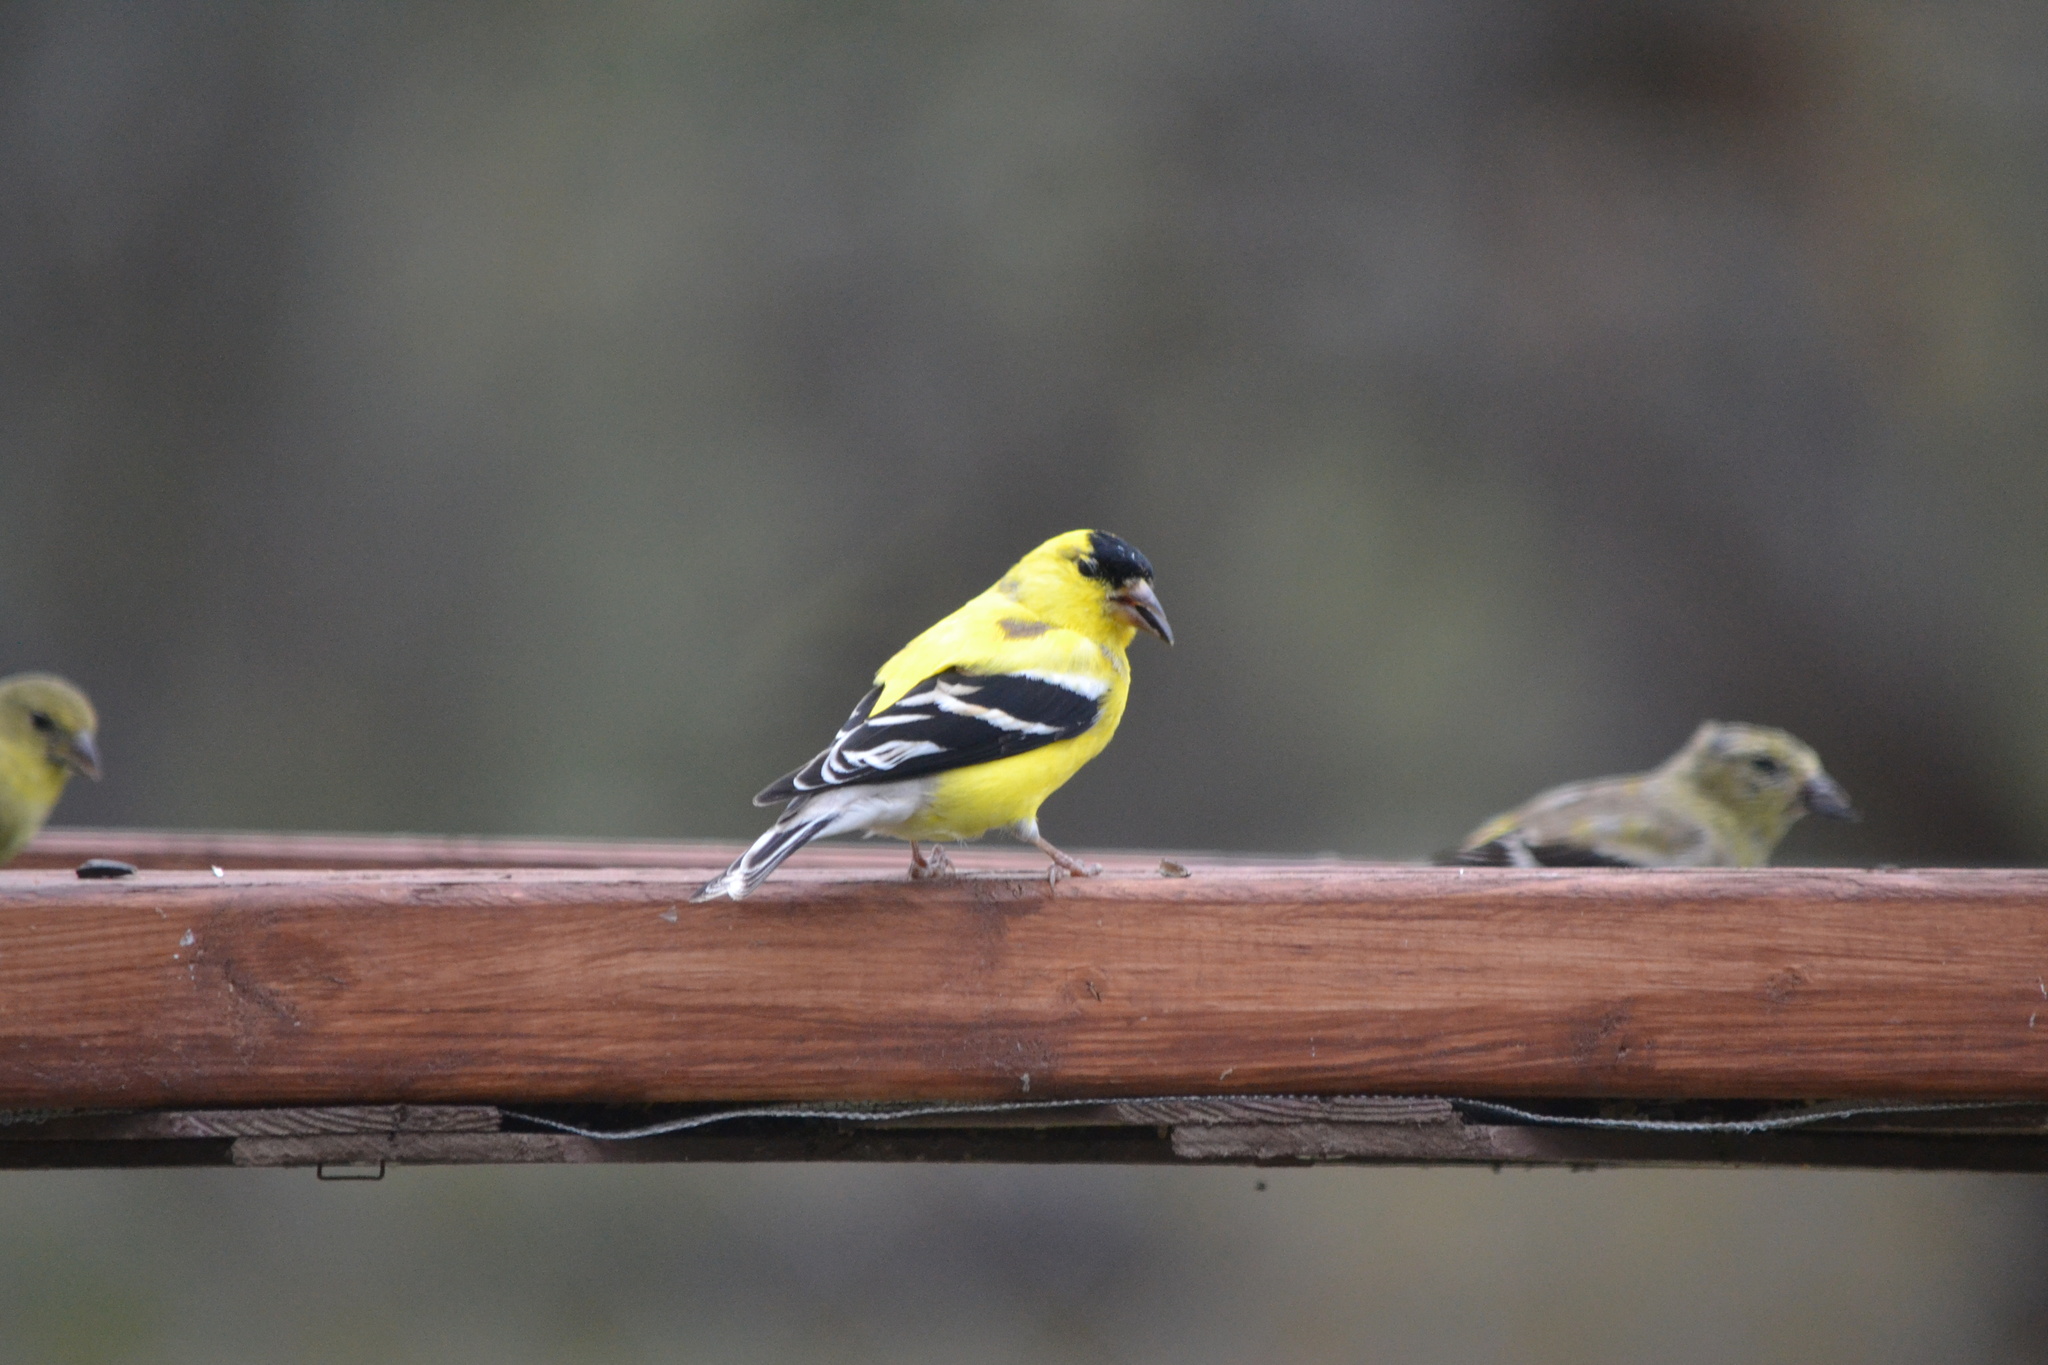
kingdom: Animalia
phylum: Chordata
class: Aves
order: Passeriformes
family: Fringillidae
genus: Spinus
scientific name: Spinus tristis
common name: American goldfinch
